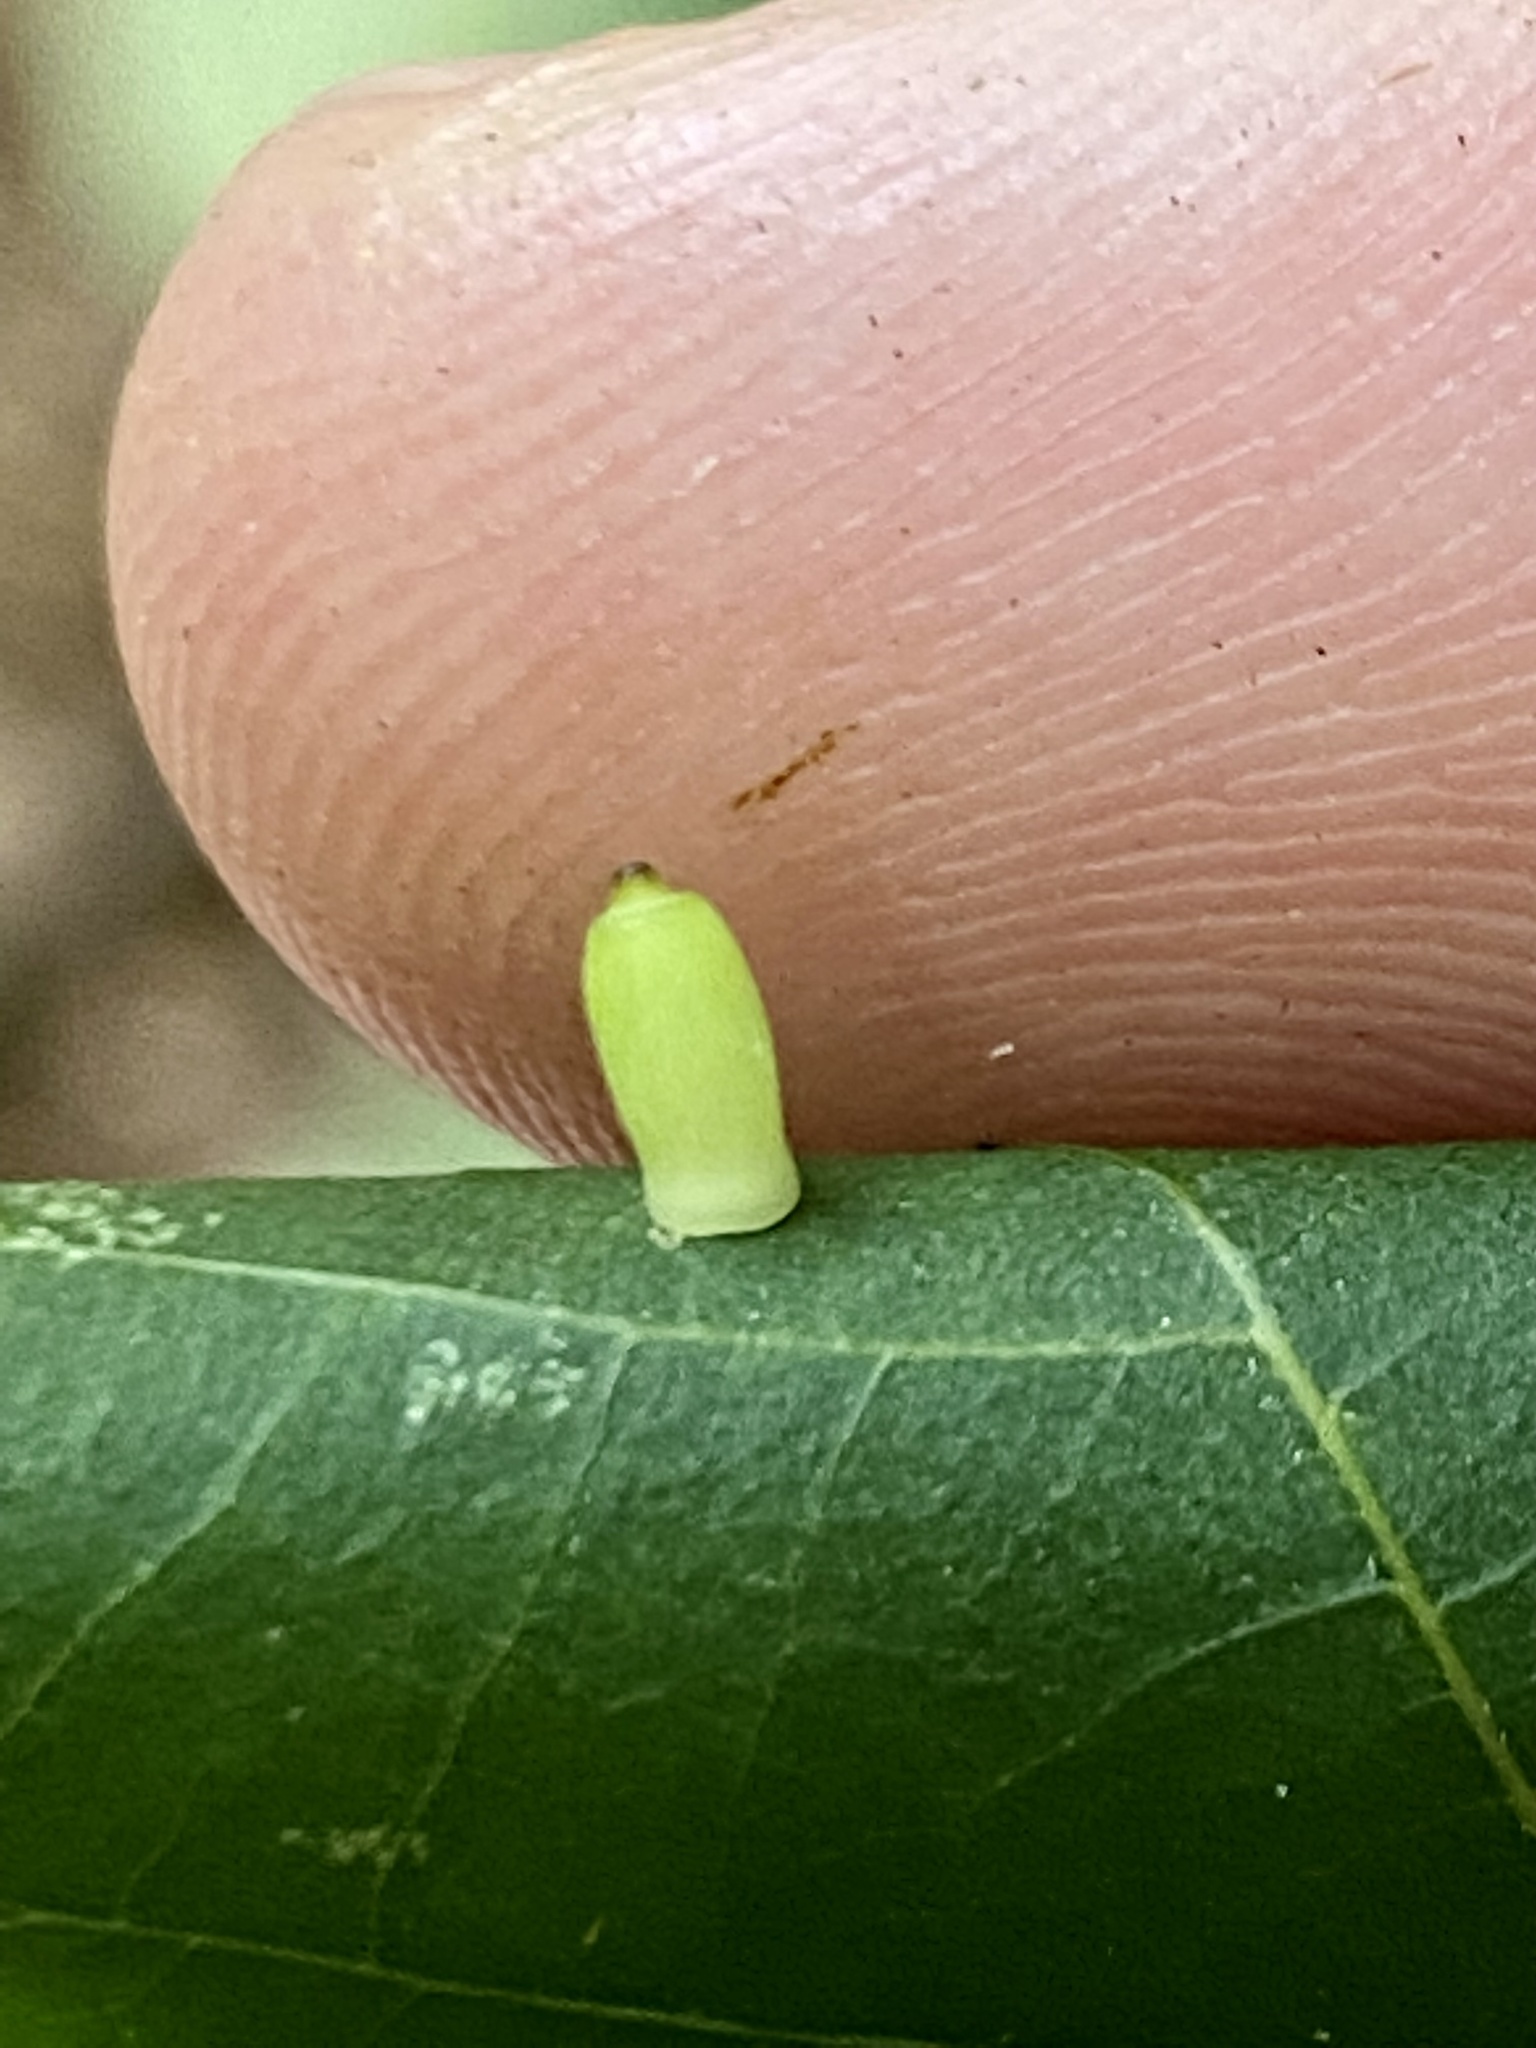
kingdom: Animalia
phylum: Arthropoda
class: Insecta
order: Diptera
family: Cecidomyiidae
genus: Caryomyia
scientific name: Caryomyia urnula
